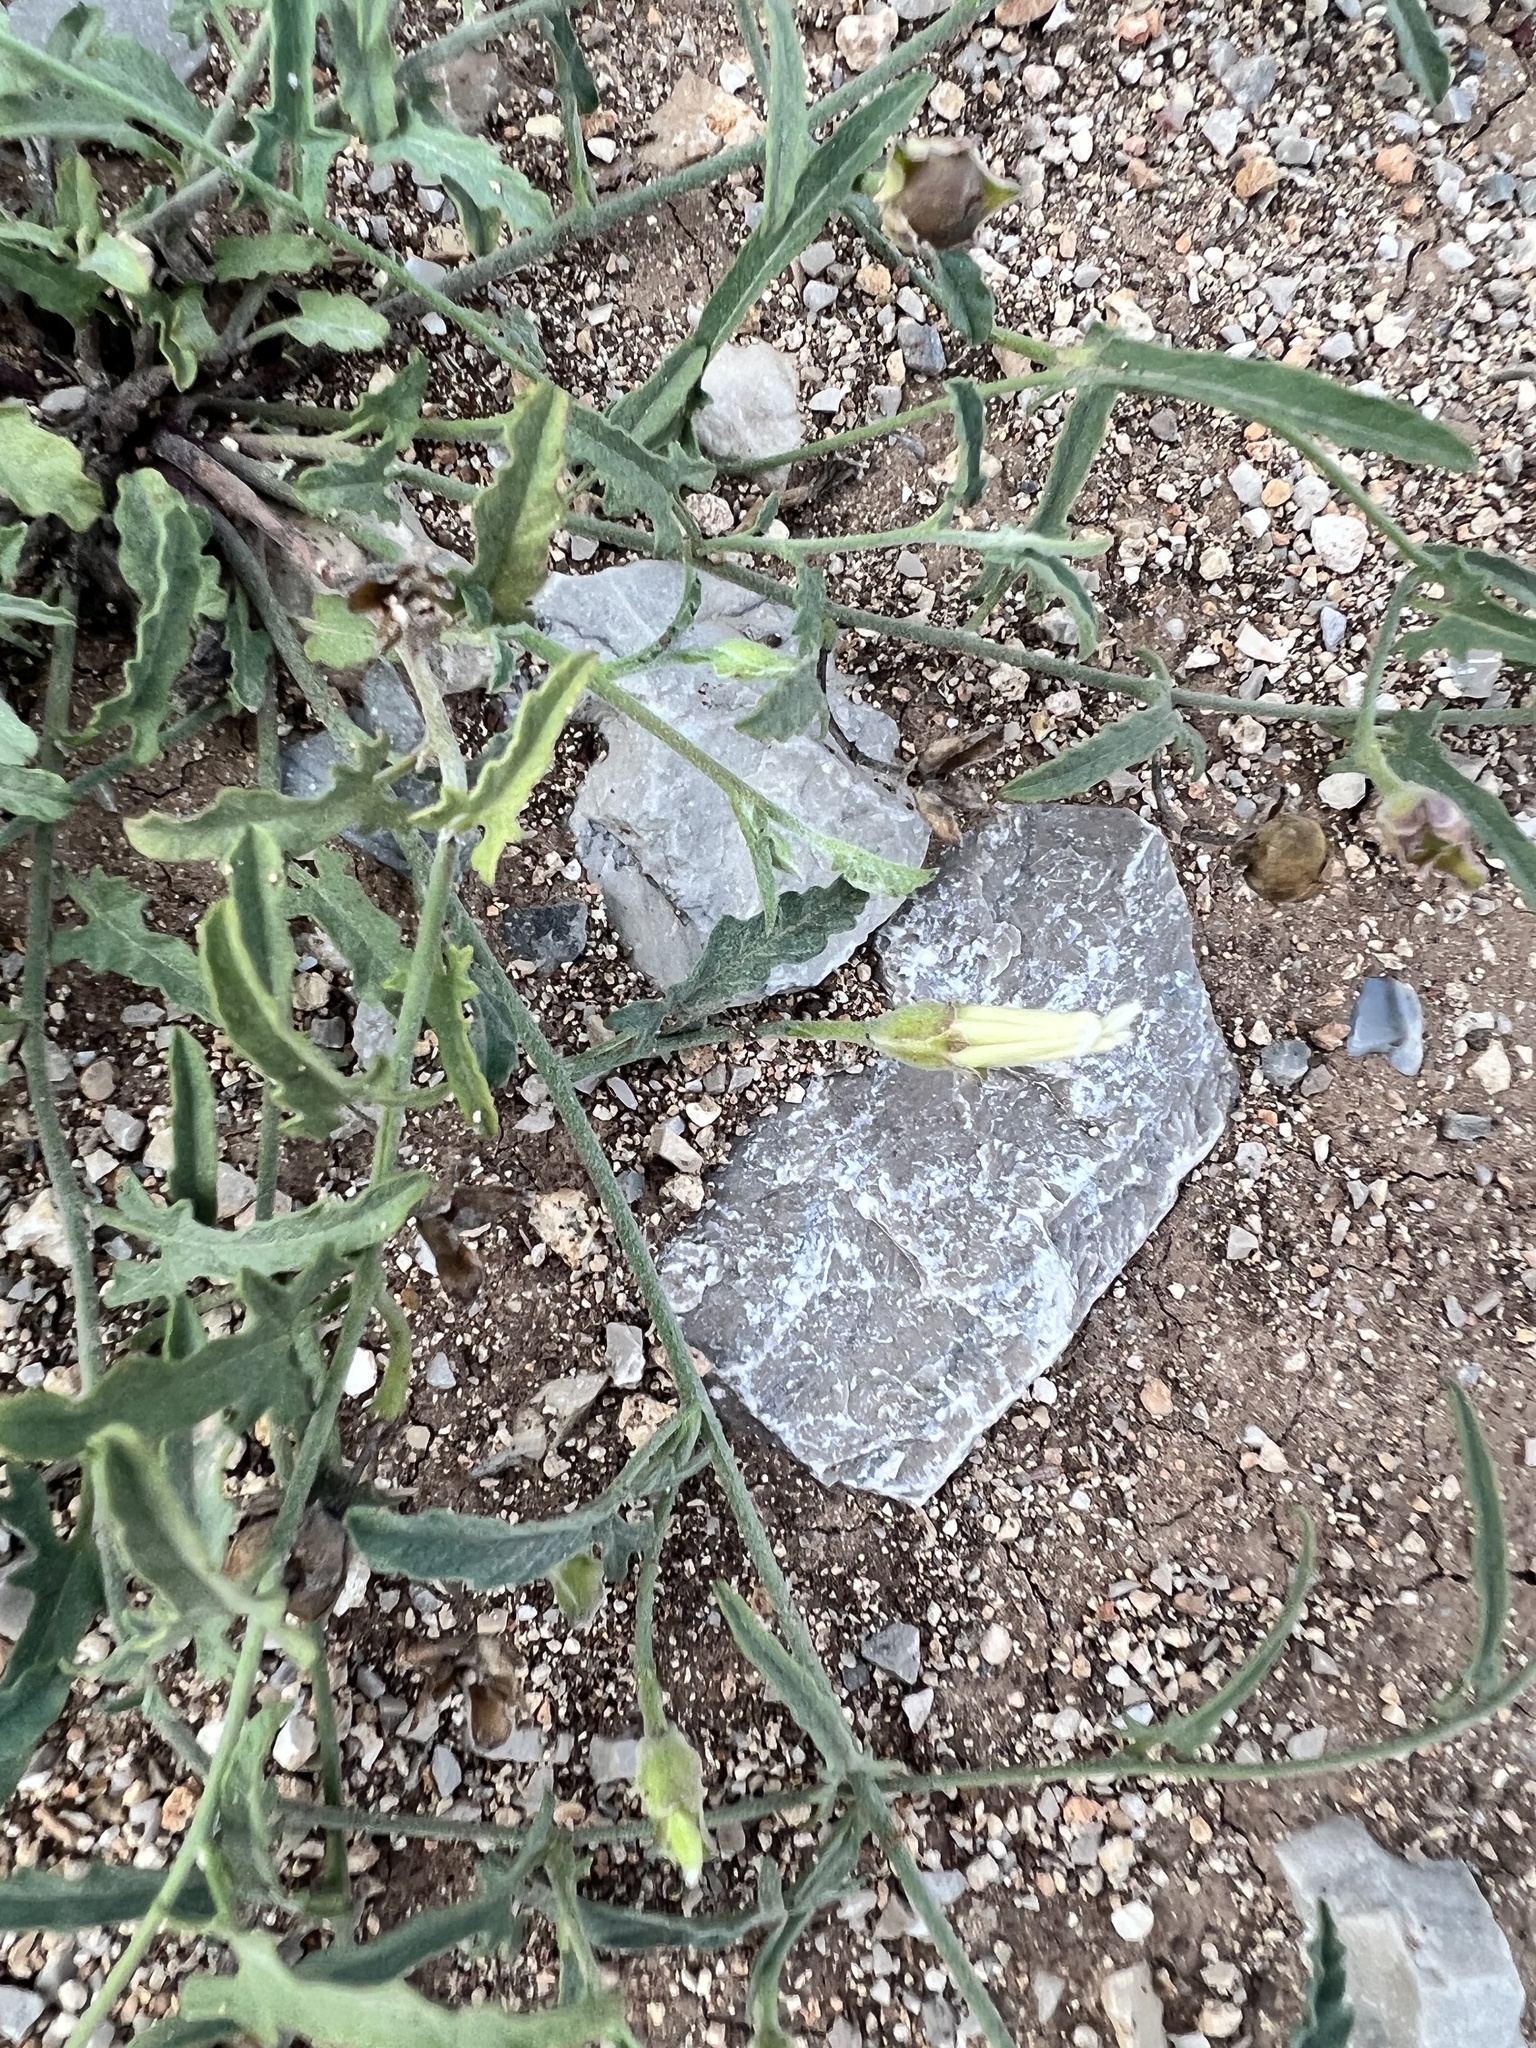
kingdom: Plantae
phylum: Tracheophyta
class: Magnoliopsida
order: Solanales
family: Convolvulaceae
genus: Convolvulus
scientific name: Convolvulus equitans
